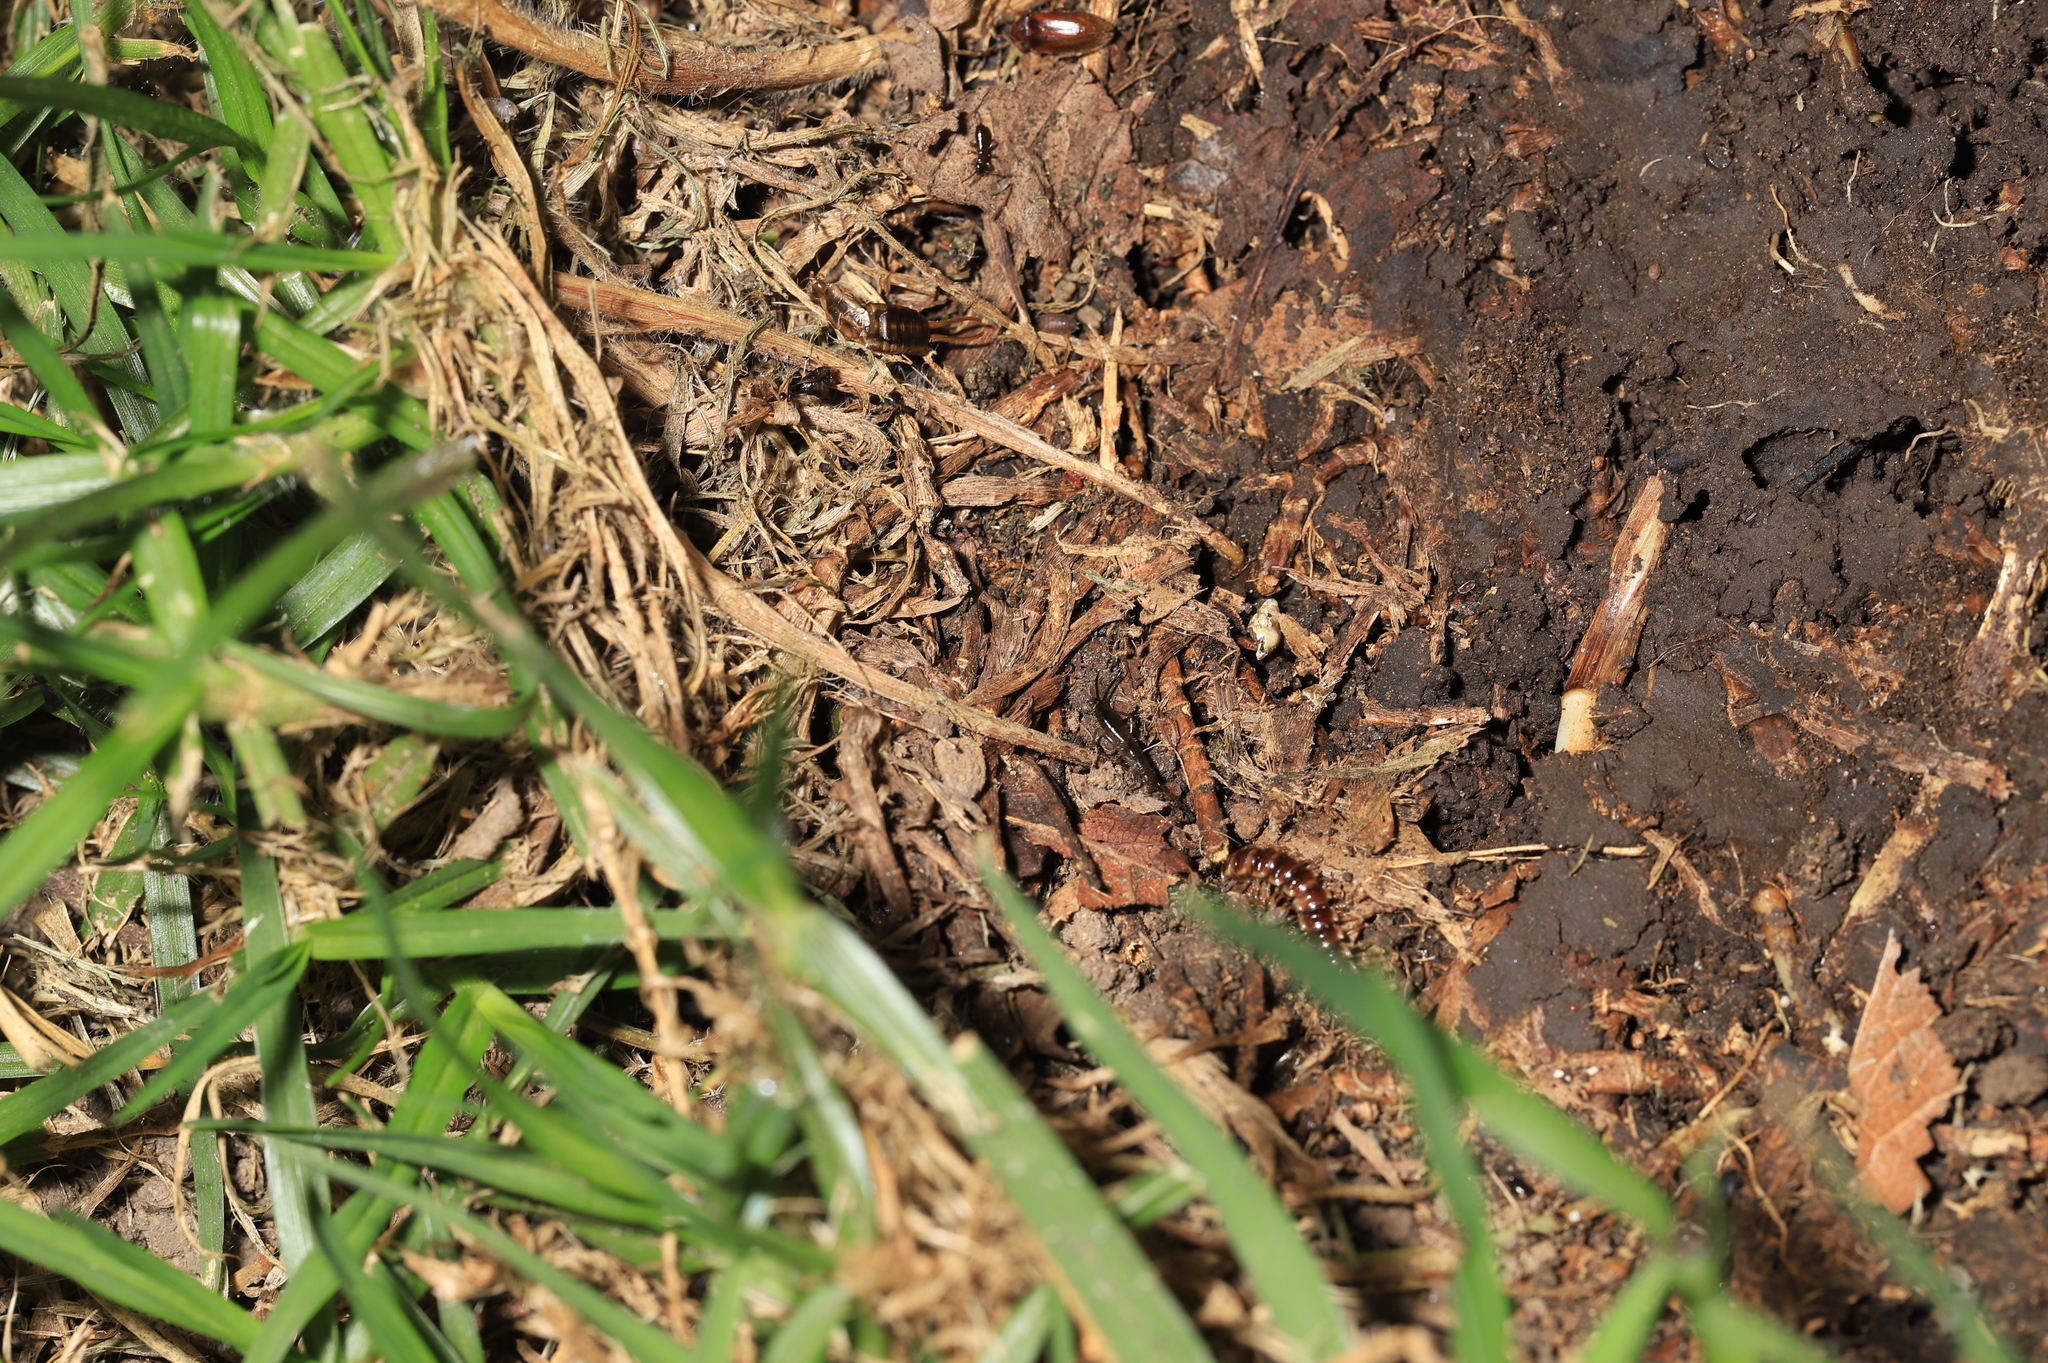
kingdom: Animalia
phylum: Arthropoda
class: Diplopoda
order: Polydesmida
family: Paradoxosomatidae
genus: Oxidus
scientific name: Oxidus gracilis
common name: Greenhouse millipede
